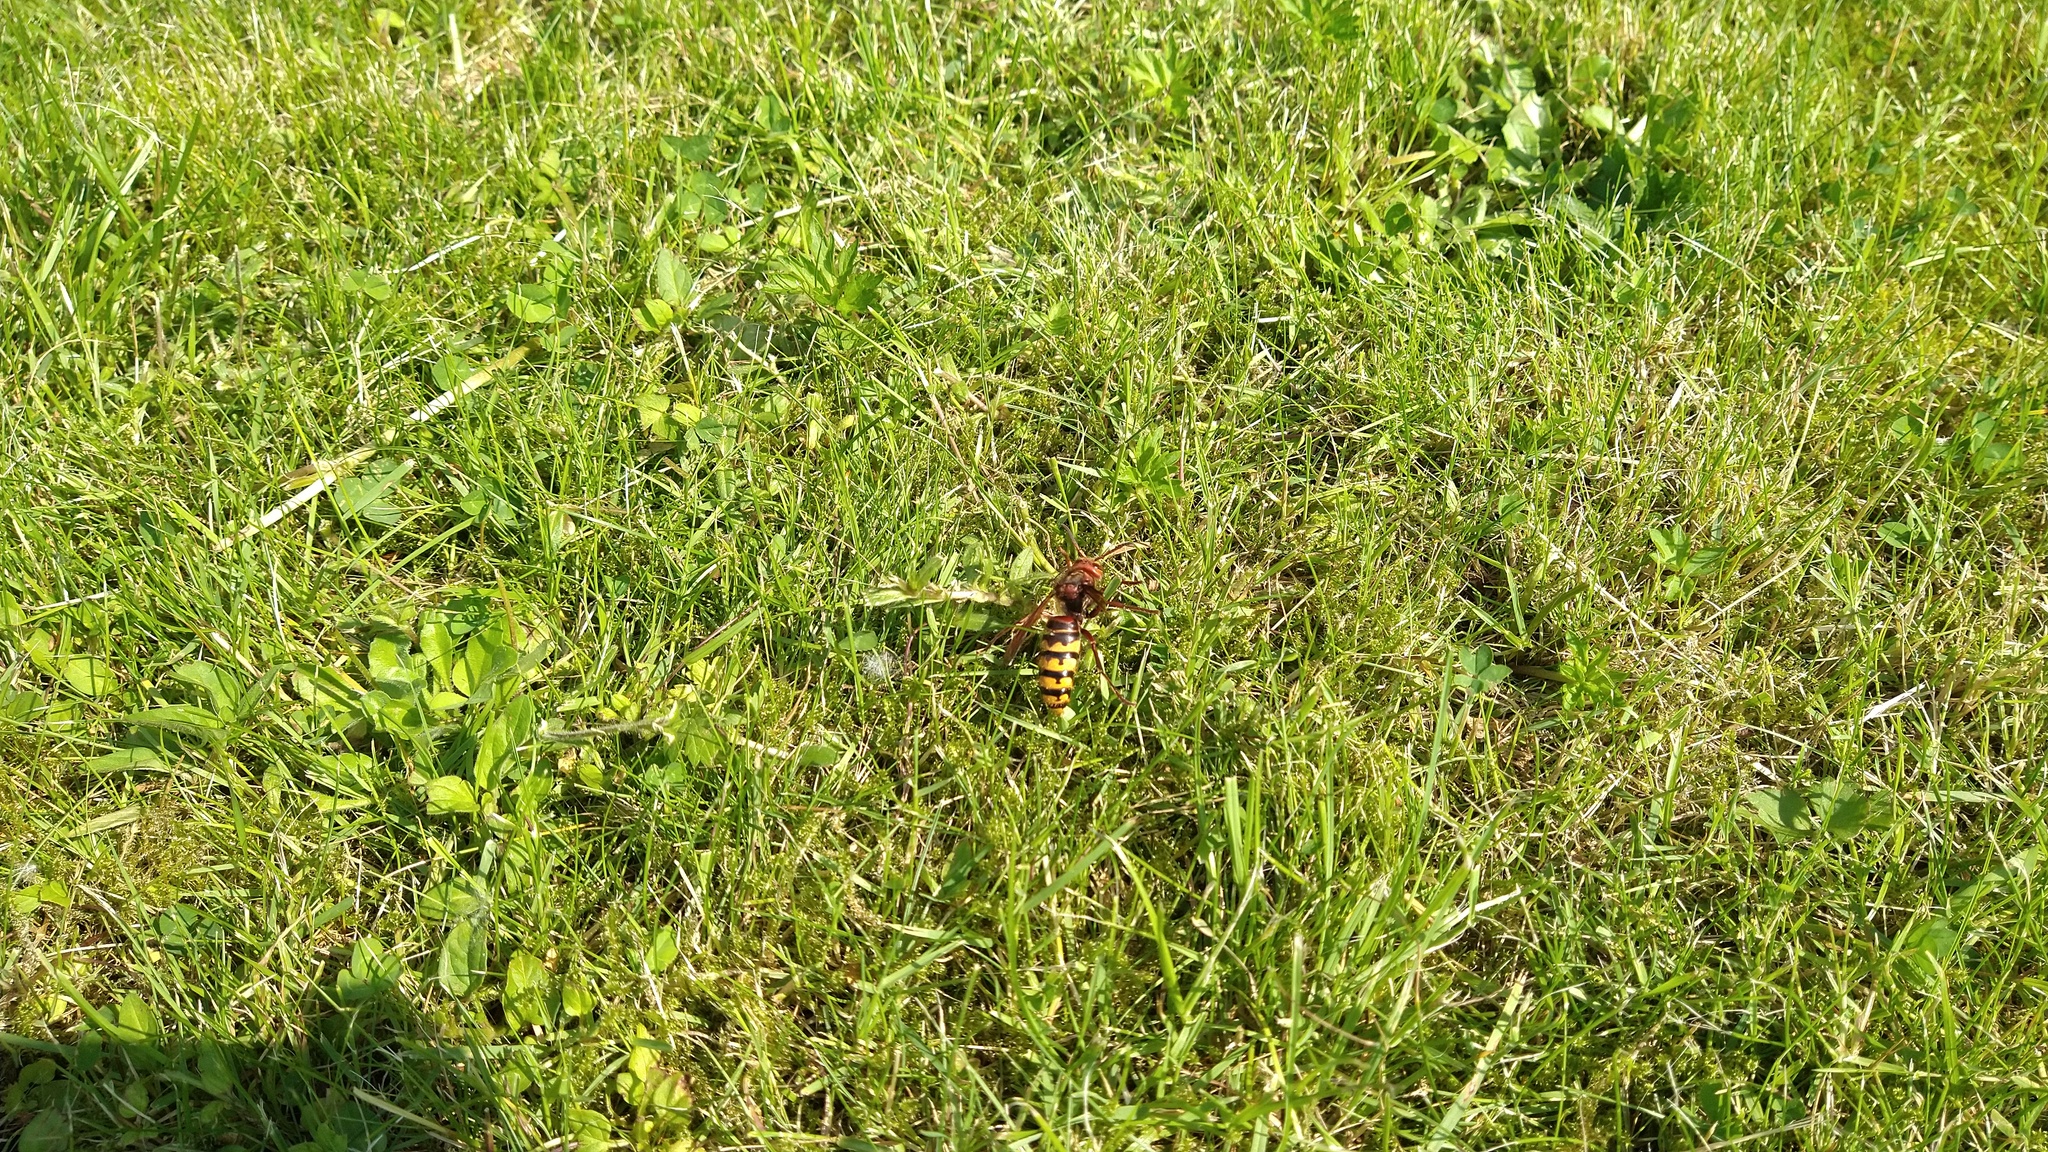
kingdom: Animalia
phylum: Arthropoda
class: Insecta
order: Hymenoptera
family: Vespidae
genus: Vespa
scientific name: Vespa crabro
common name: Hornet
